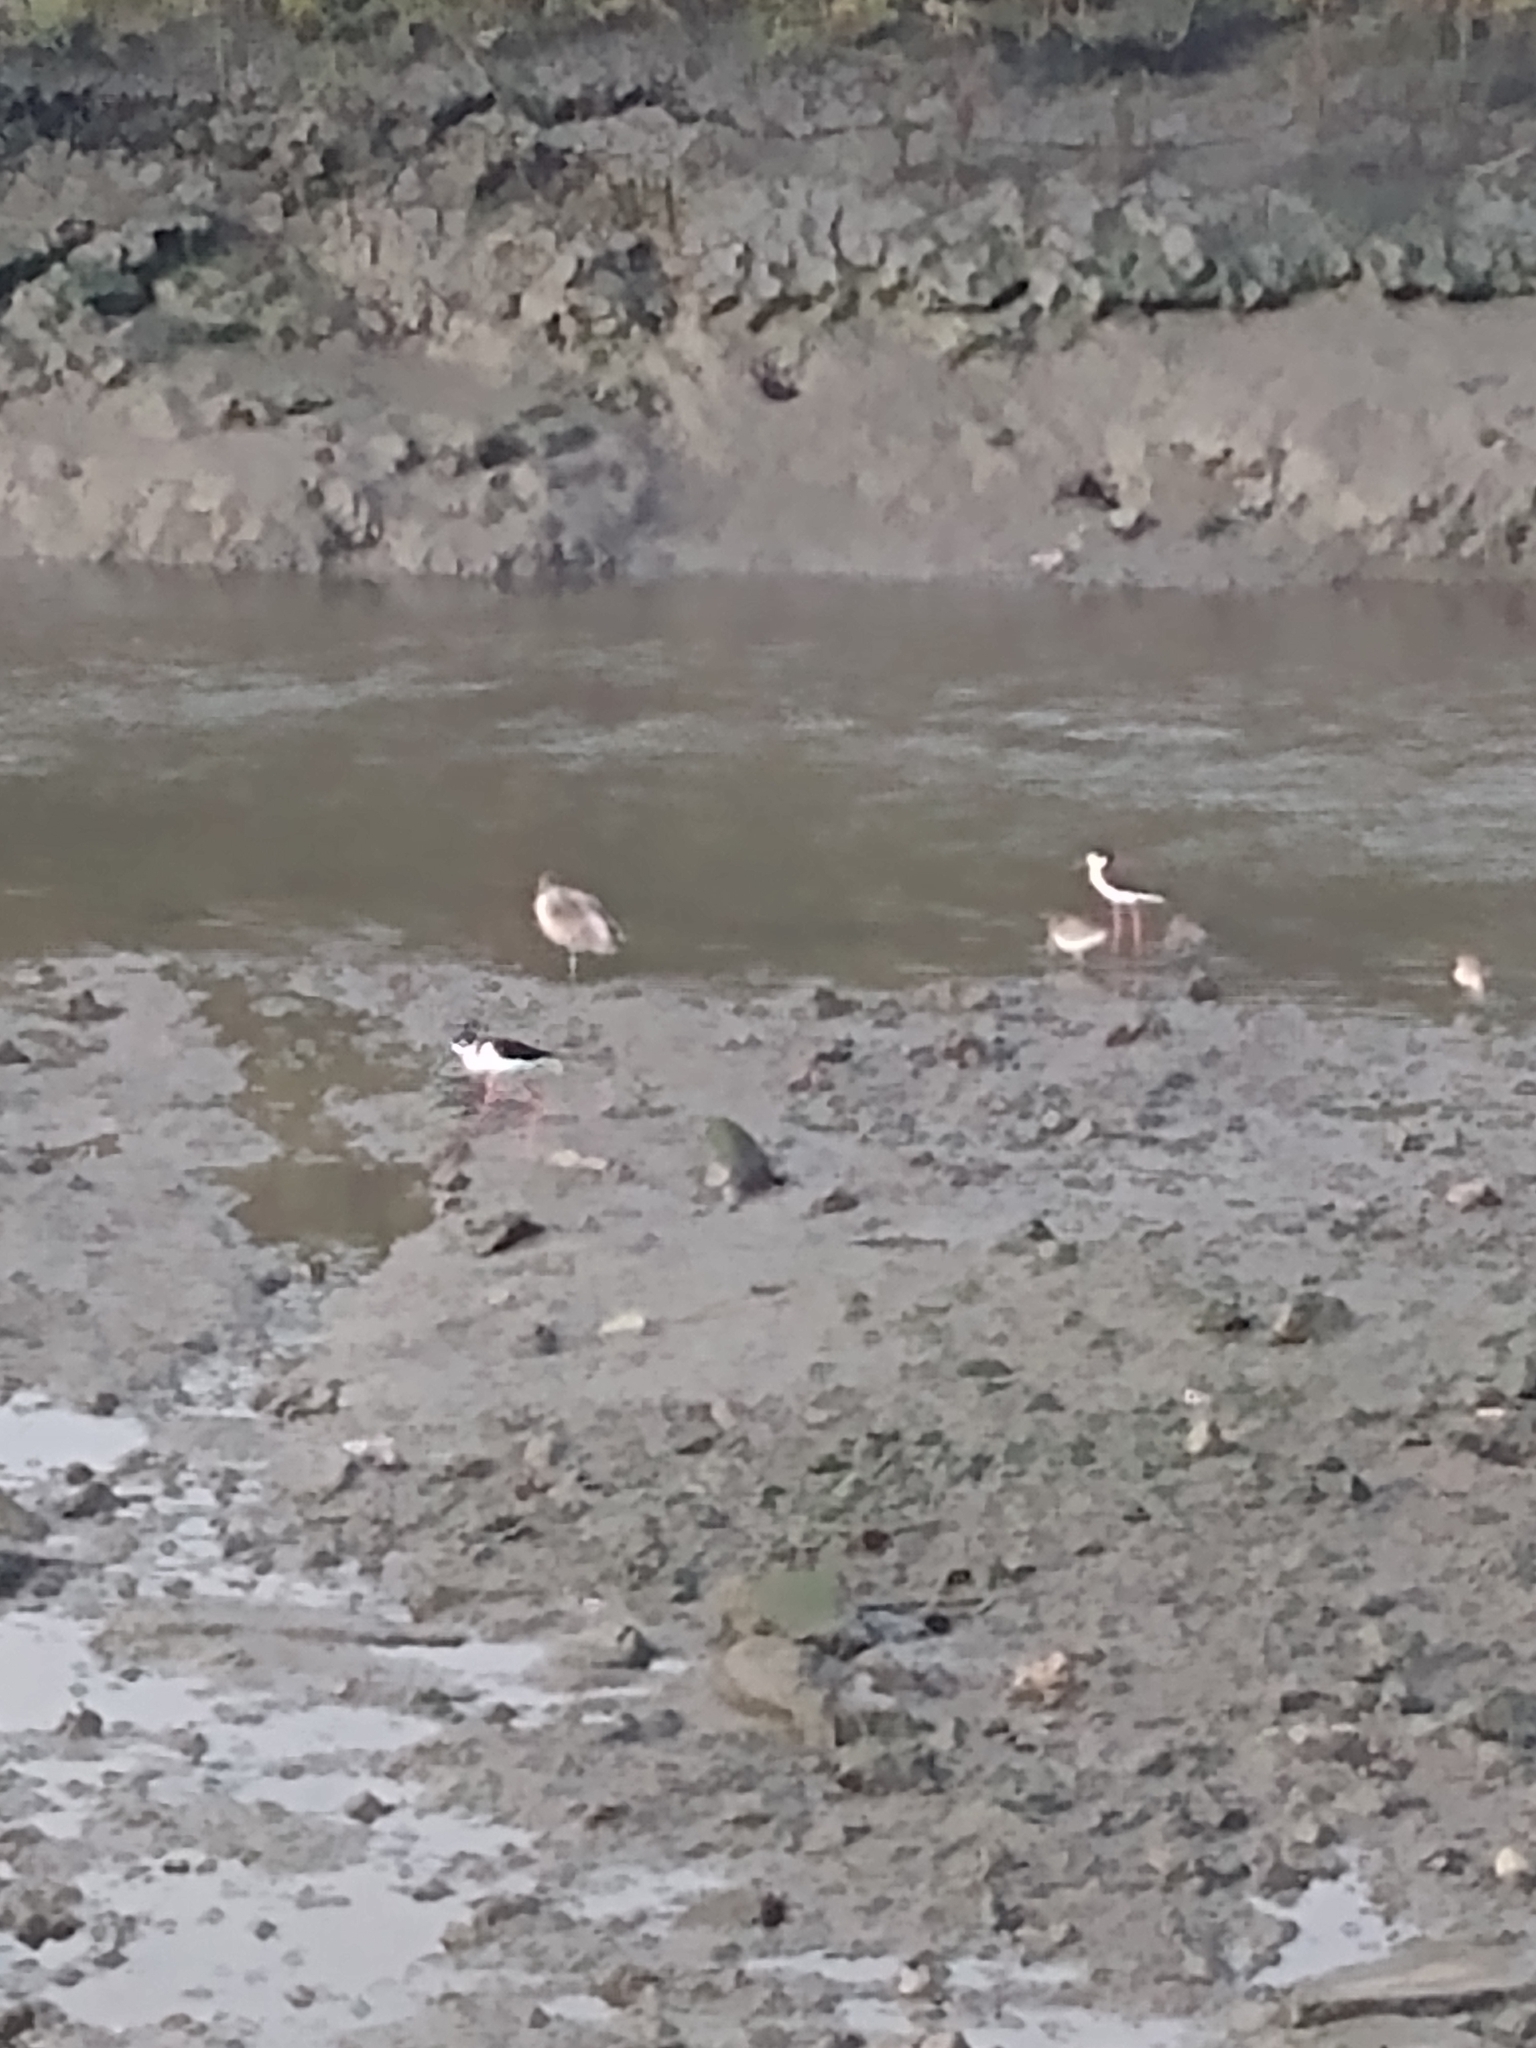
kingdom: Animalia
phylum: Chordata
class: Aves
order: Charadriiformes
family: Recurvirostridae
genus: Himantopus
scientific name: Himantopus mexicanus
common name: Black-necked stilt
